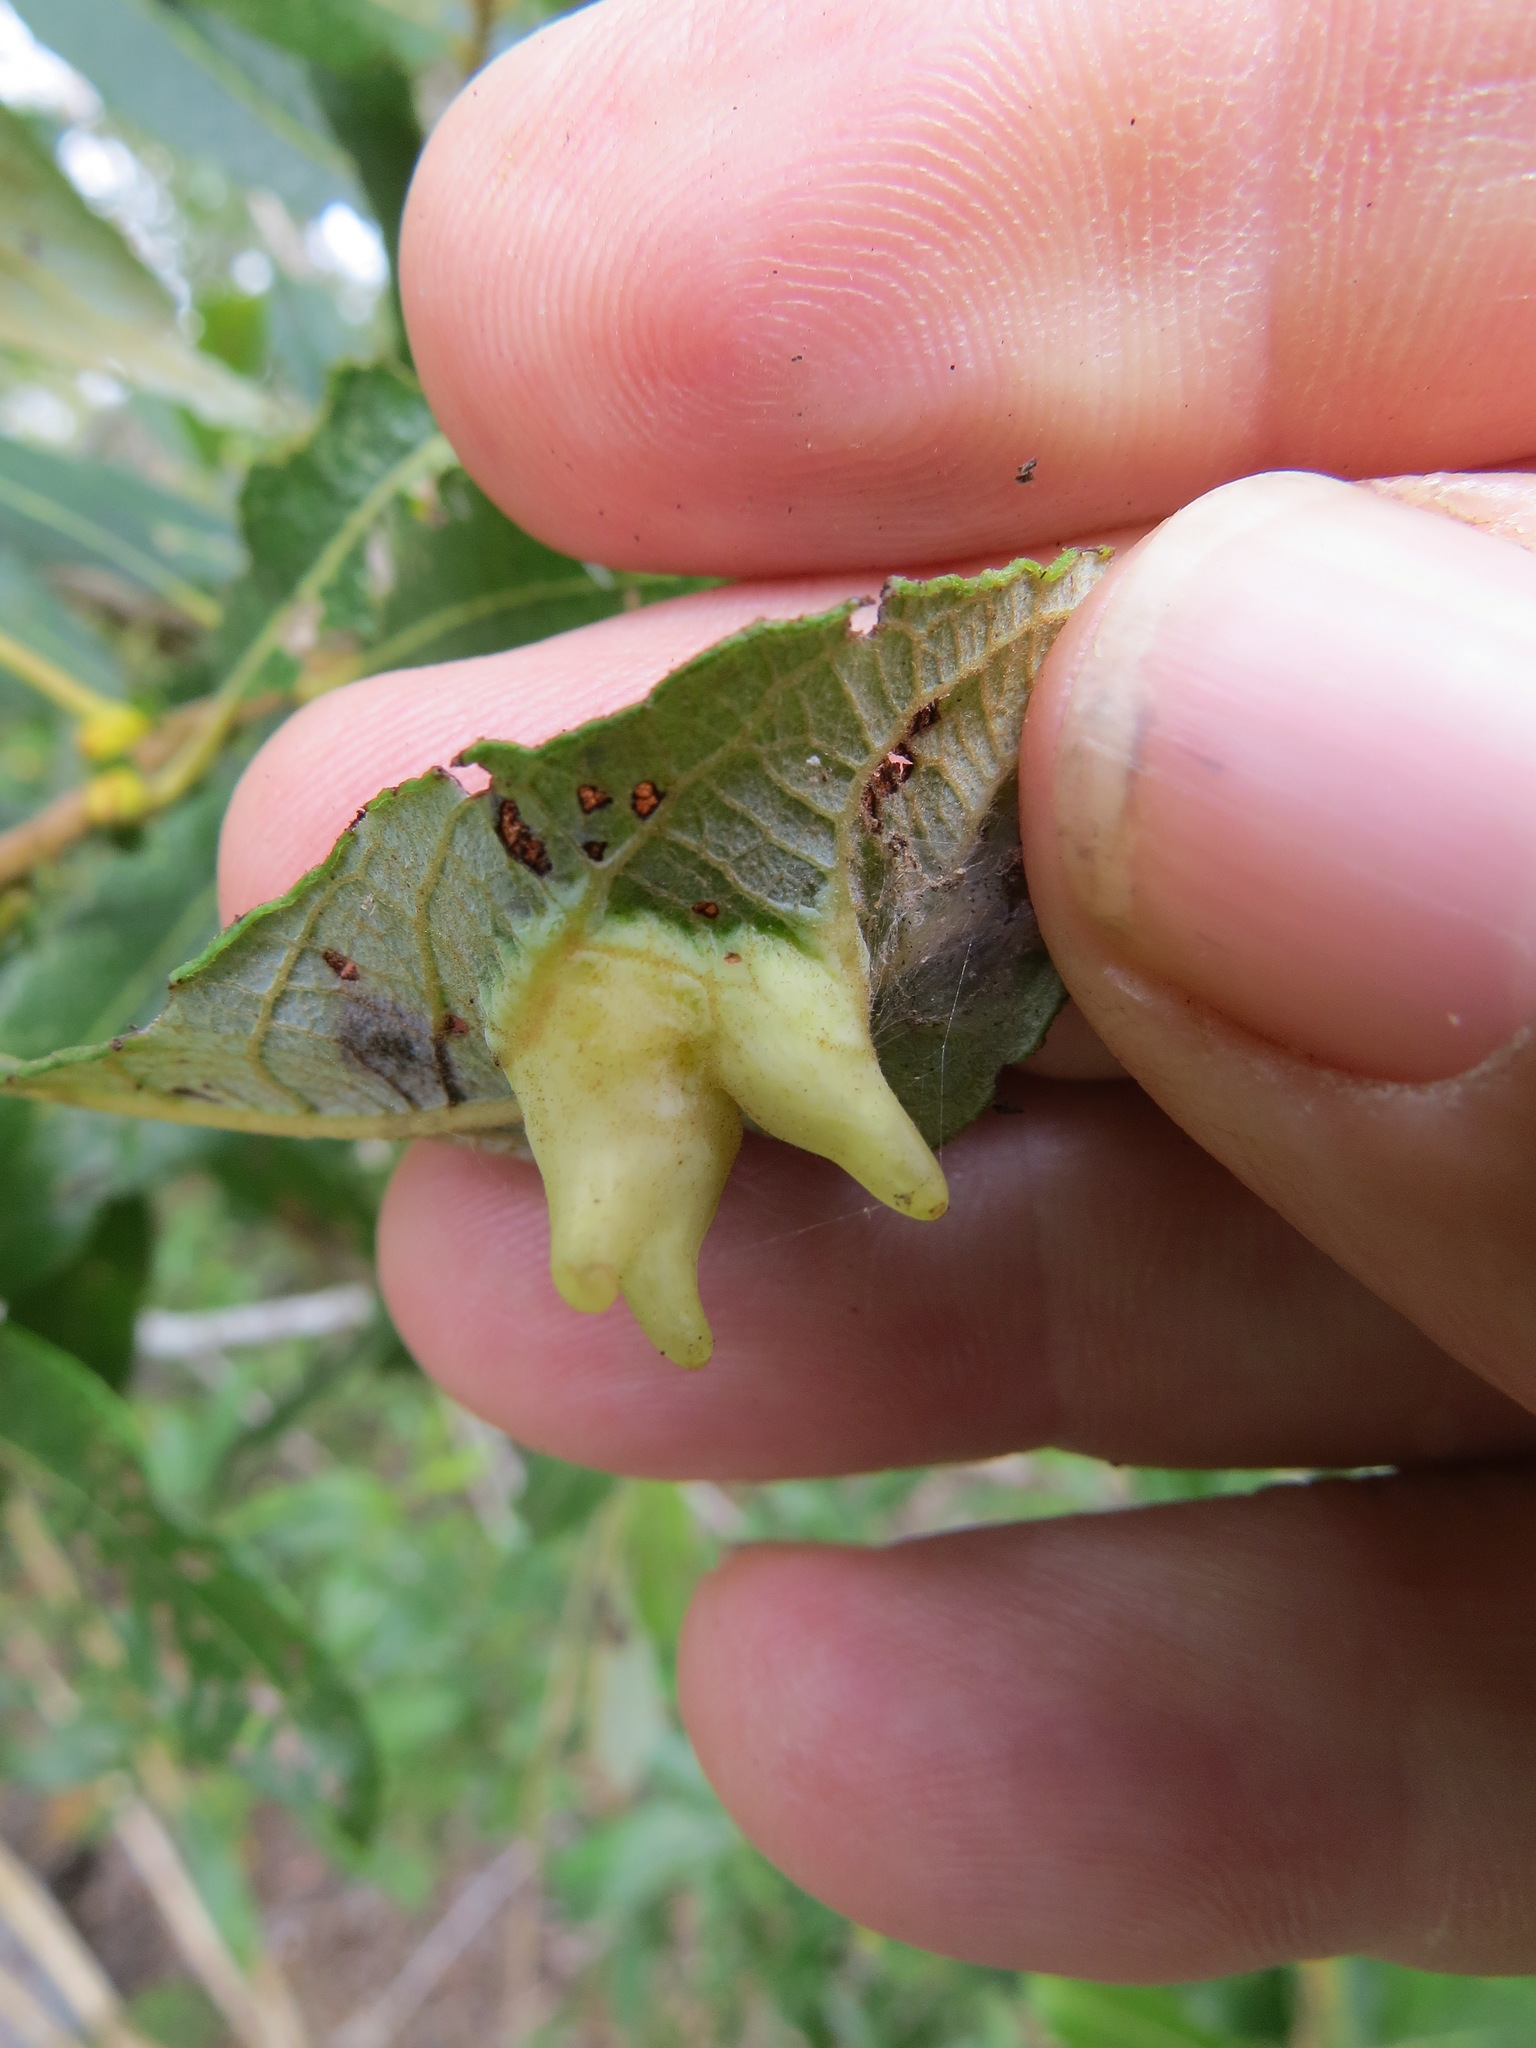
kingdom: Animalia
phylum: Arthropoda
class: Insecta
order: Diptera
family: Cecidomyiidae
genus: Iteomyia
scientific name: Iteomyia
